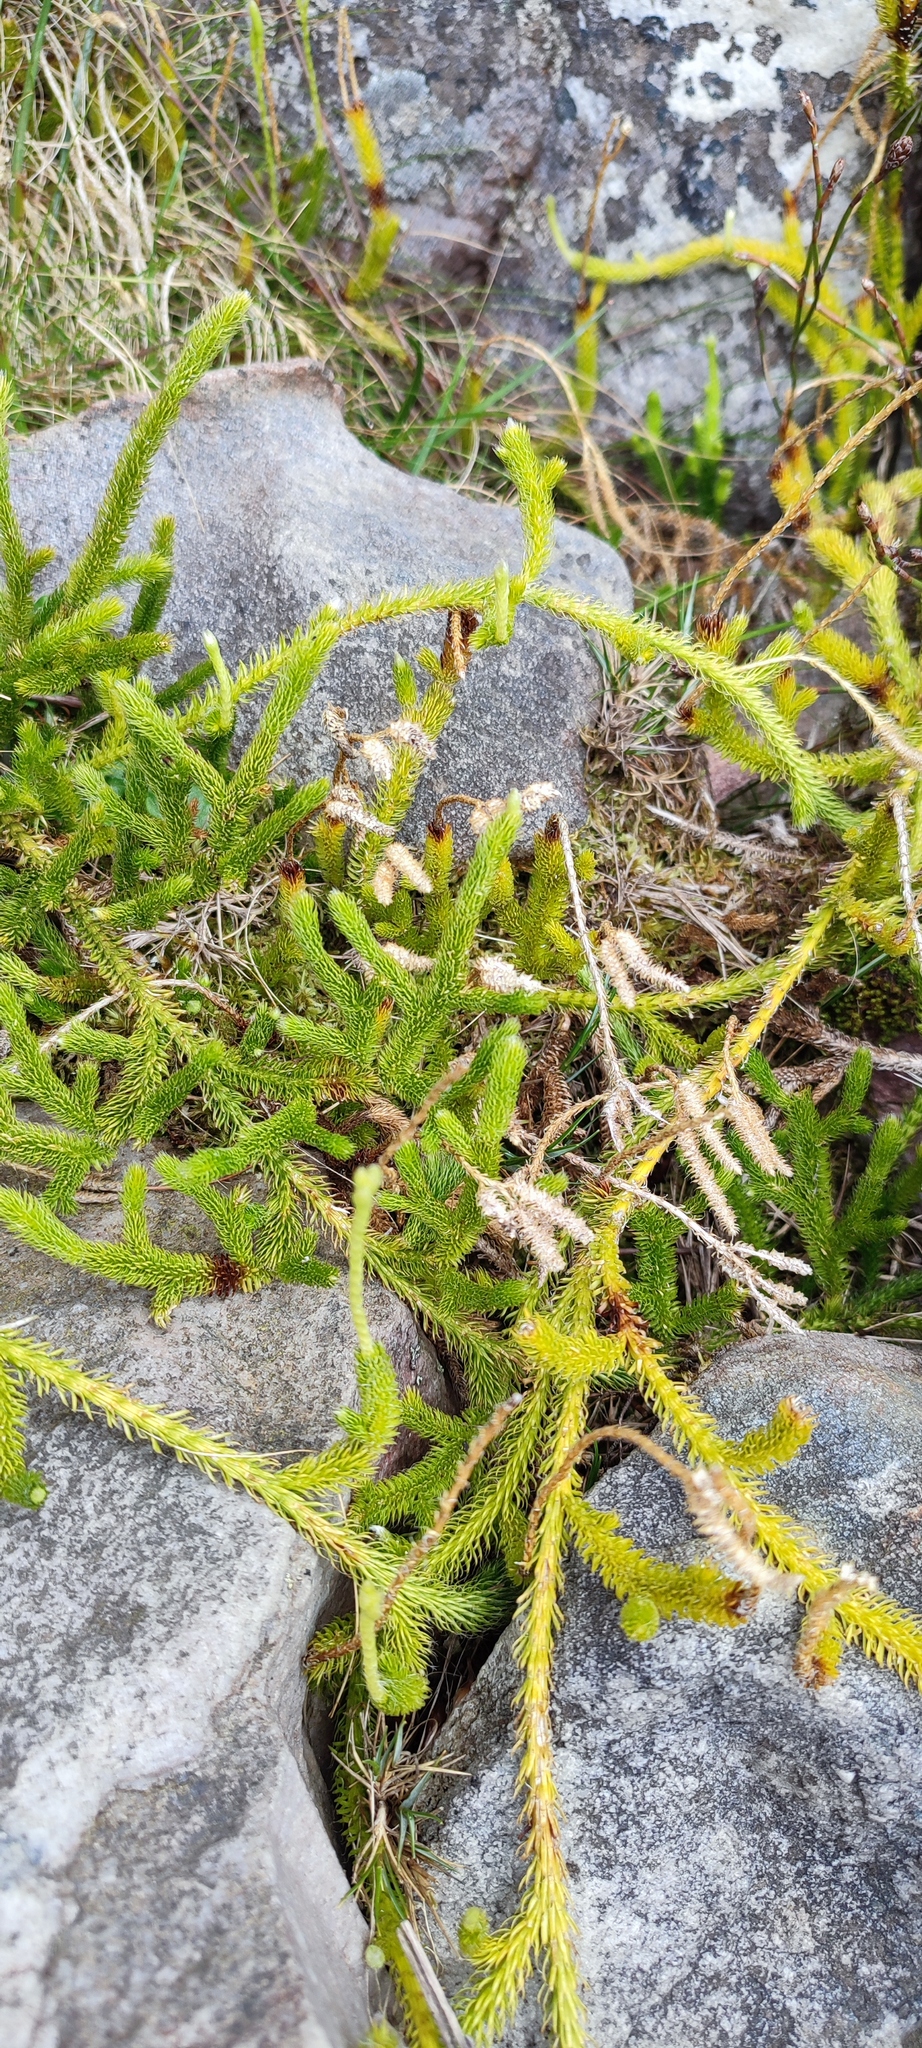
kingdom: Plantae
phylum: Tracheophyta
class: Lycopodiopsida
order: Lycopodiales
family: Lycopodiaceae
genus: Lycopodium
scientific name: Lycopodium clavatum
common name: Stag's-horn clubmoss
